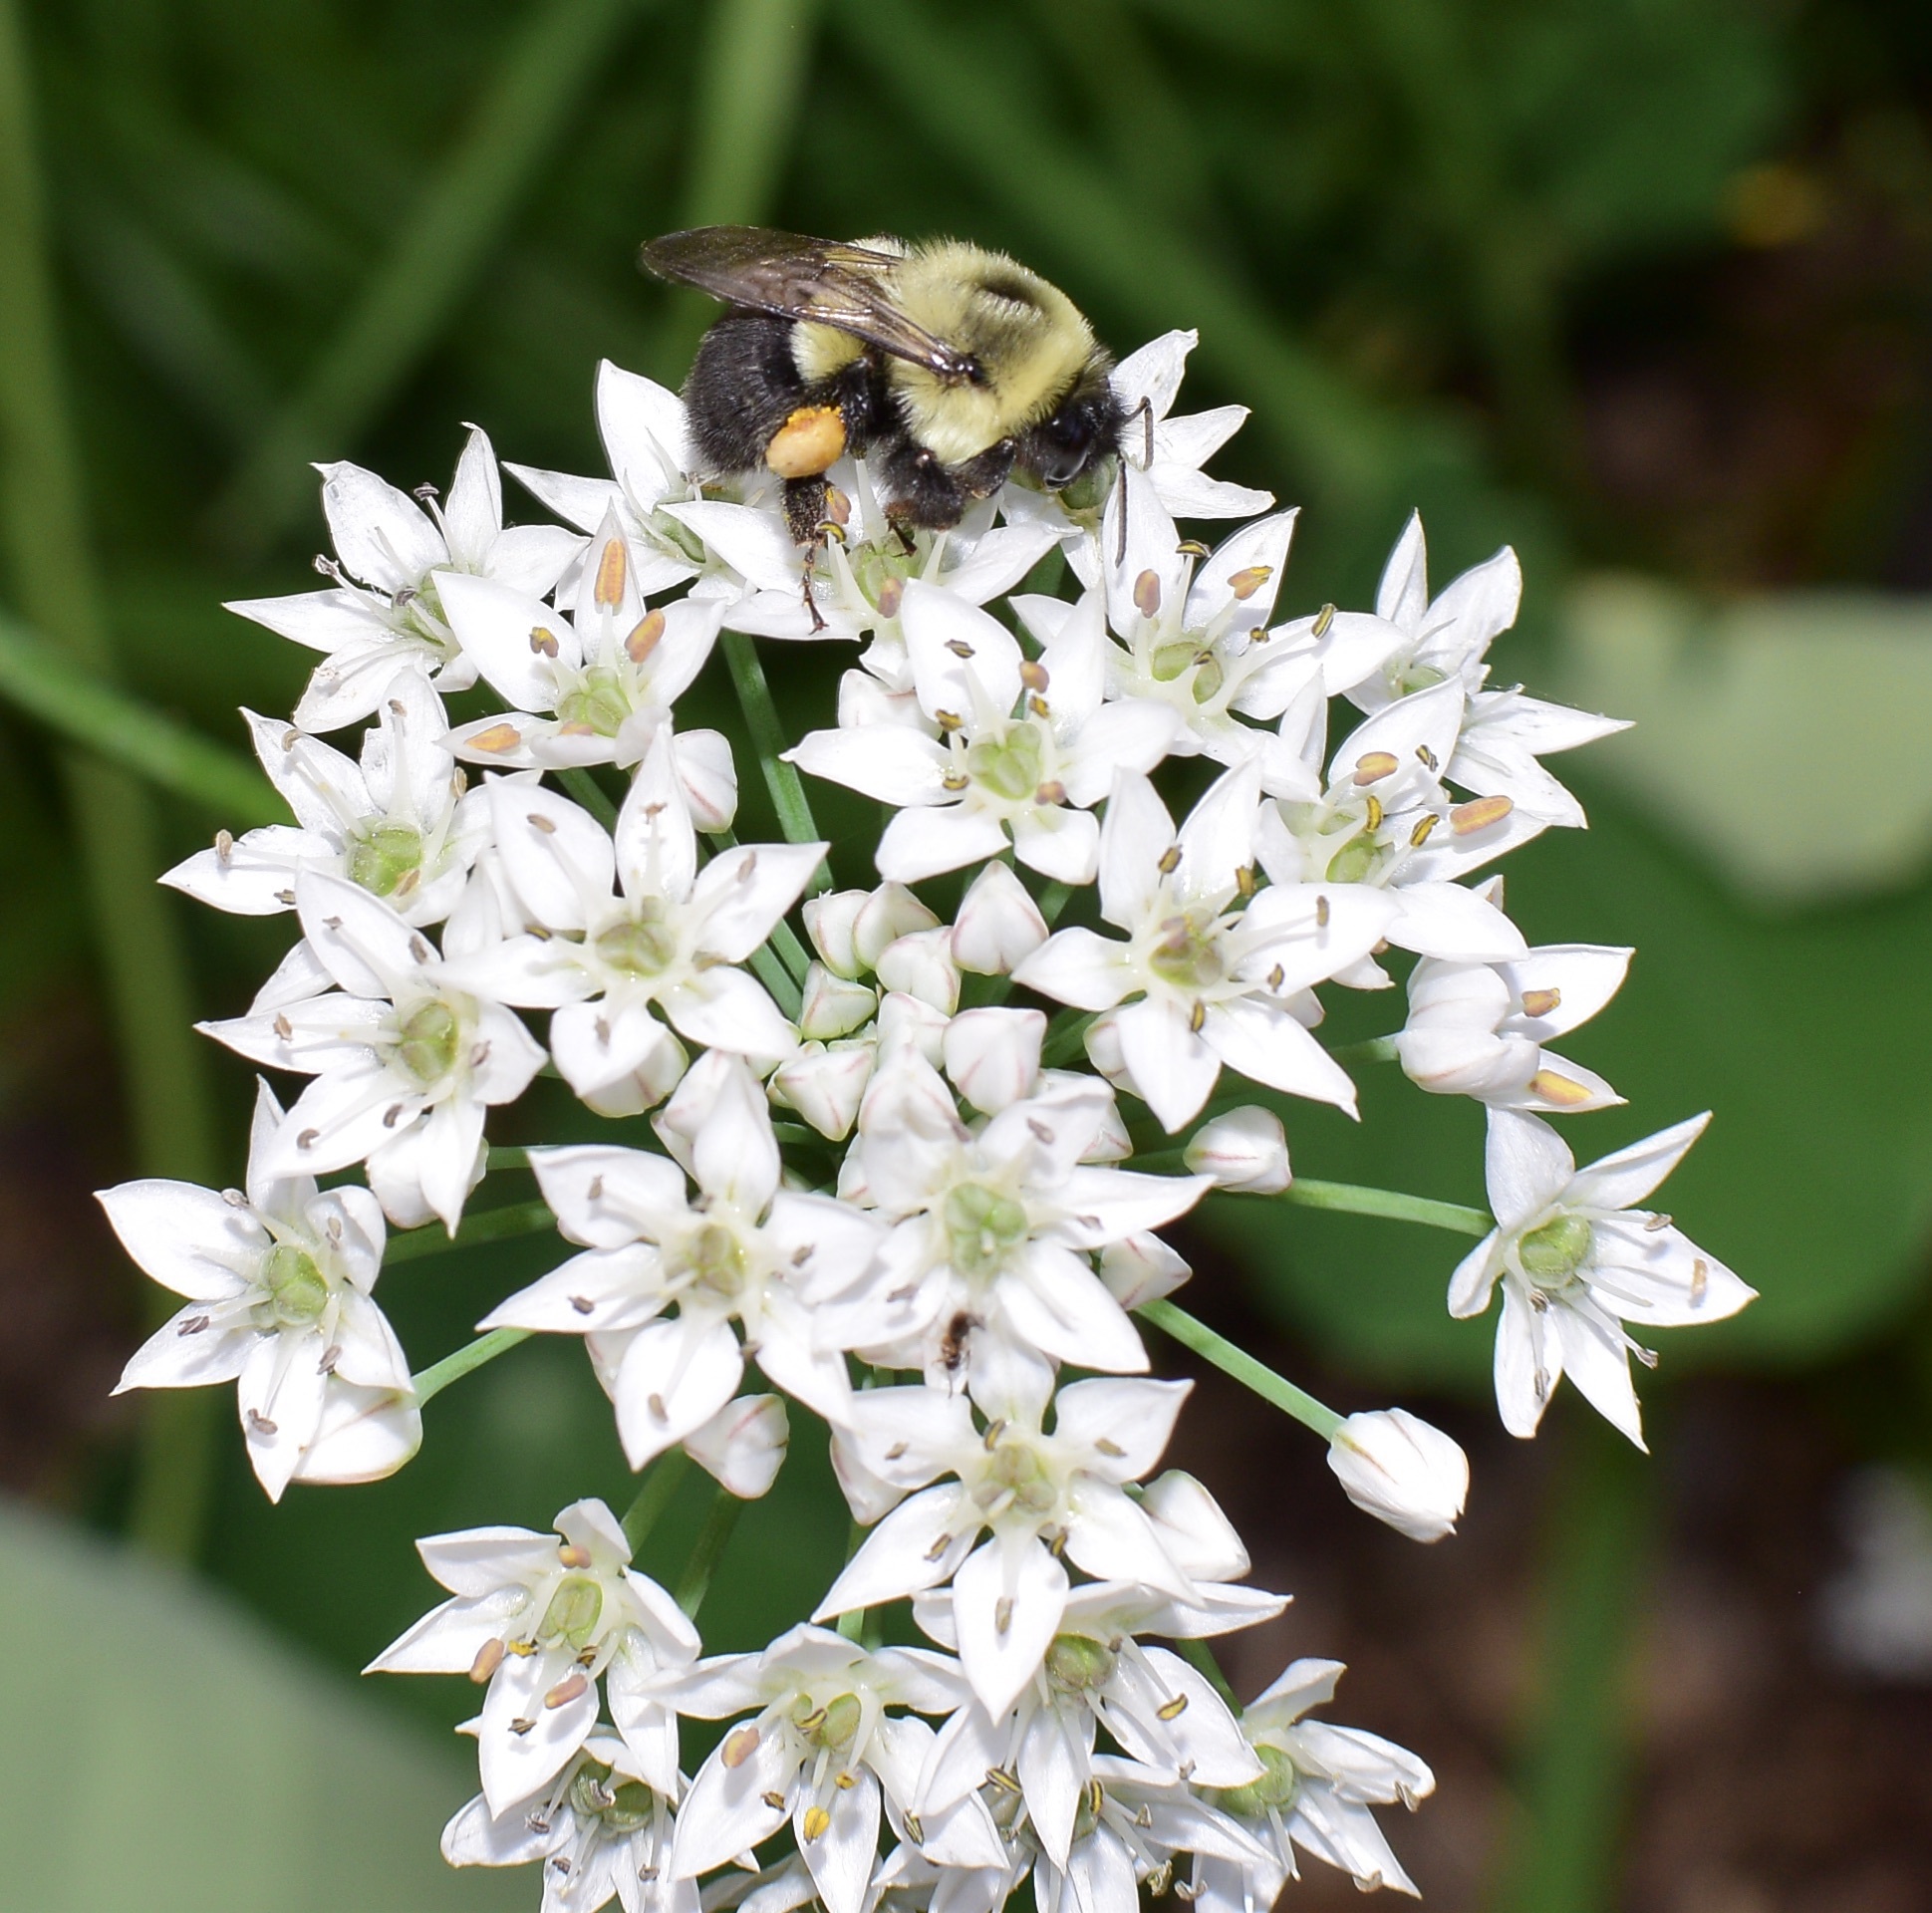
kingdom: Animalia
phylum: Arthropoda
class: Insecta
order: Hymenoptera
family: Apidae
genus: Bombus
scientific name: Bombus impatiens
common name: Common eastern bumble bee
